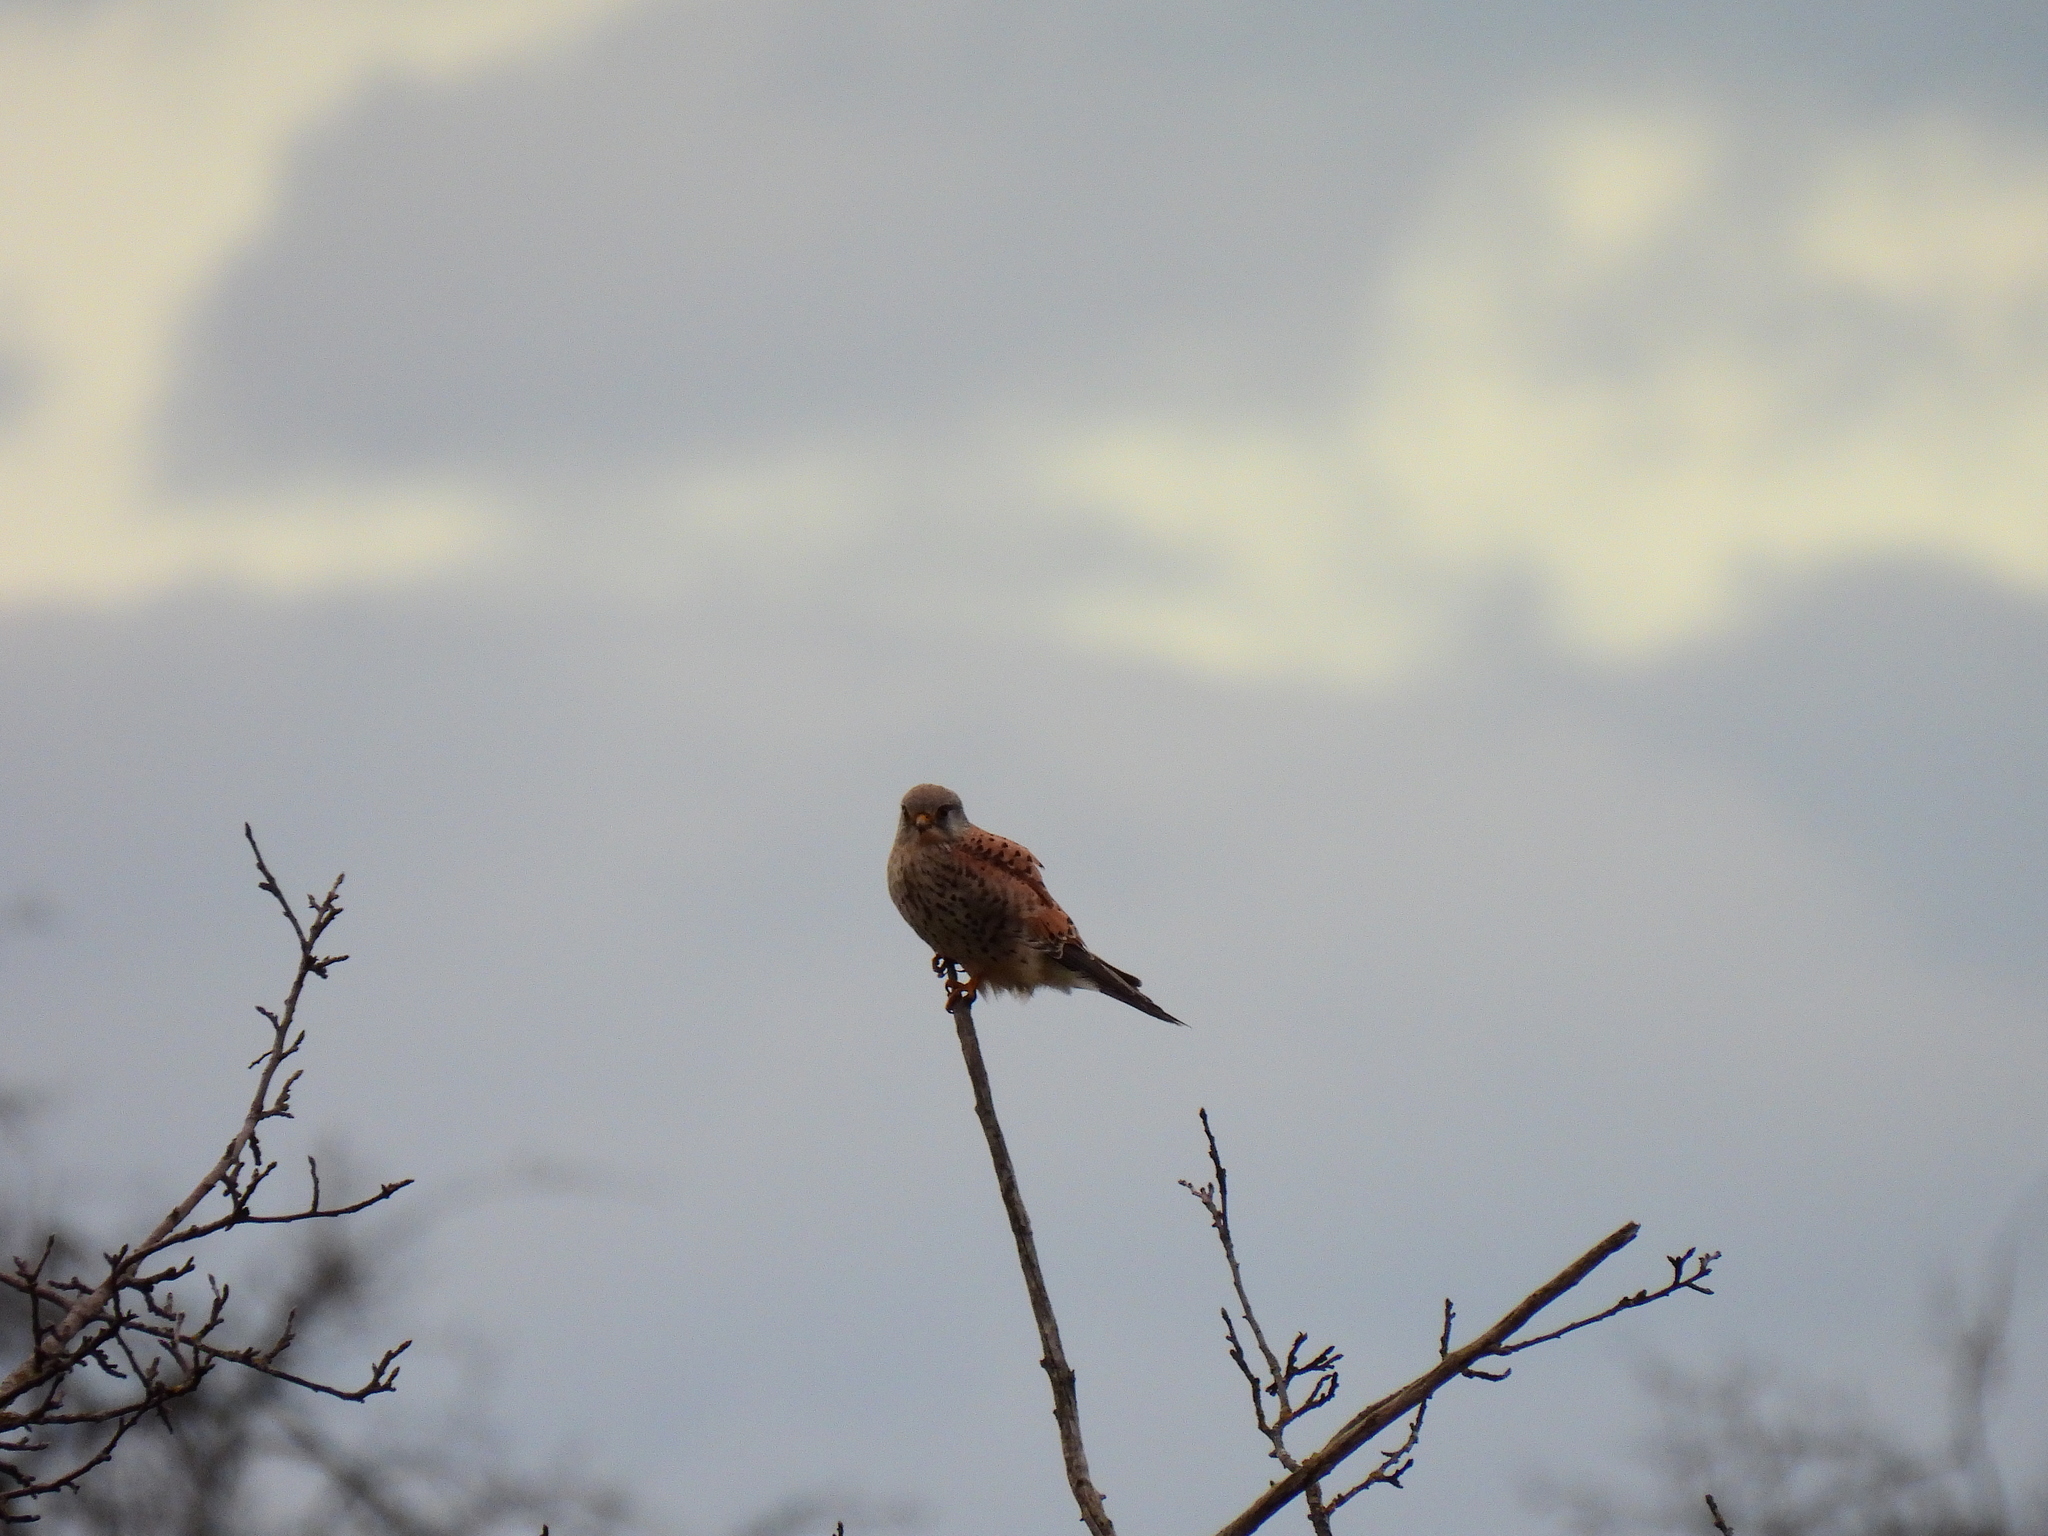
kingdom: Animalia
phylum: Chordata
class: Aves
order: Falconiformes
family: Falconidae
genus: Falco
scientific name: Falco tinnunculus
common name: Common kestrel
